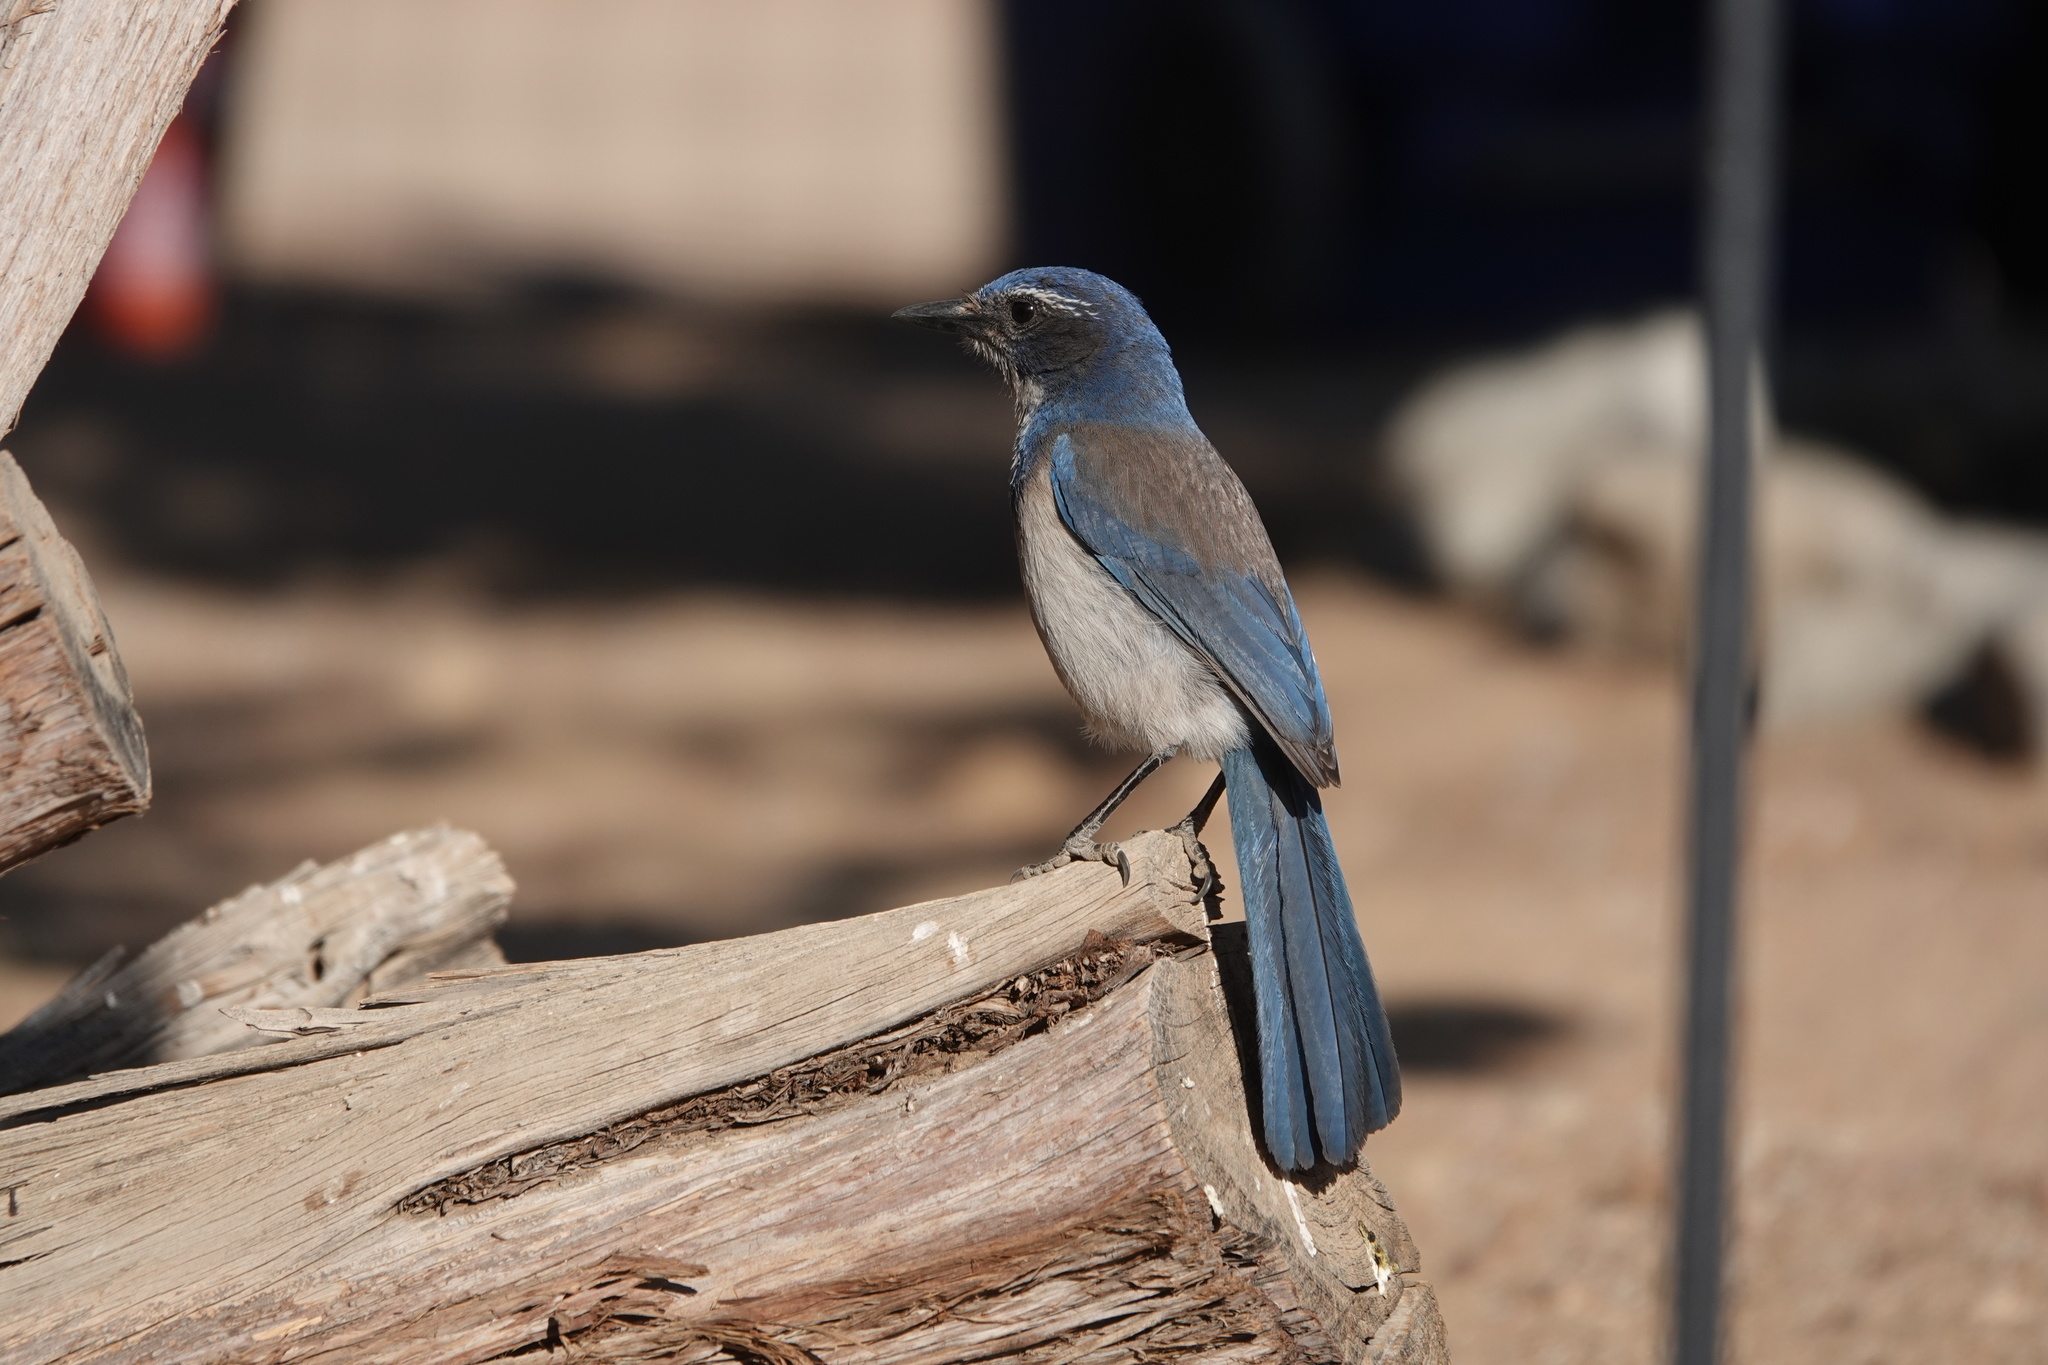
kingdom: Animalia
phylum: Chordata
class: Aves
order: Passeriformes
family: Corvidae
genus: Aphelocoma
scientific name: Aphelocoma californica
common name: California scrub-jay
